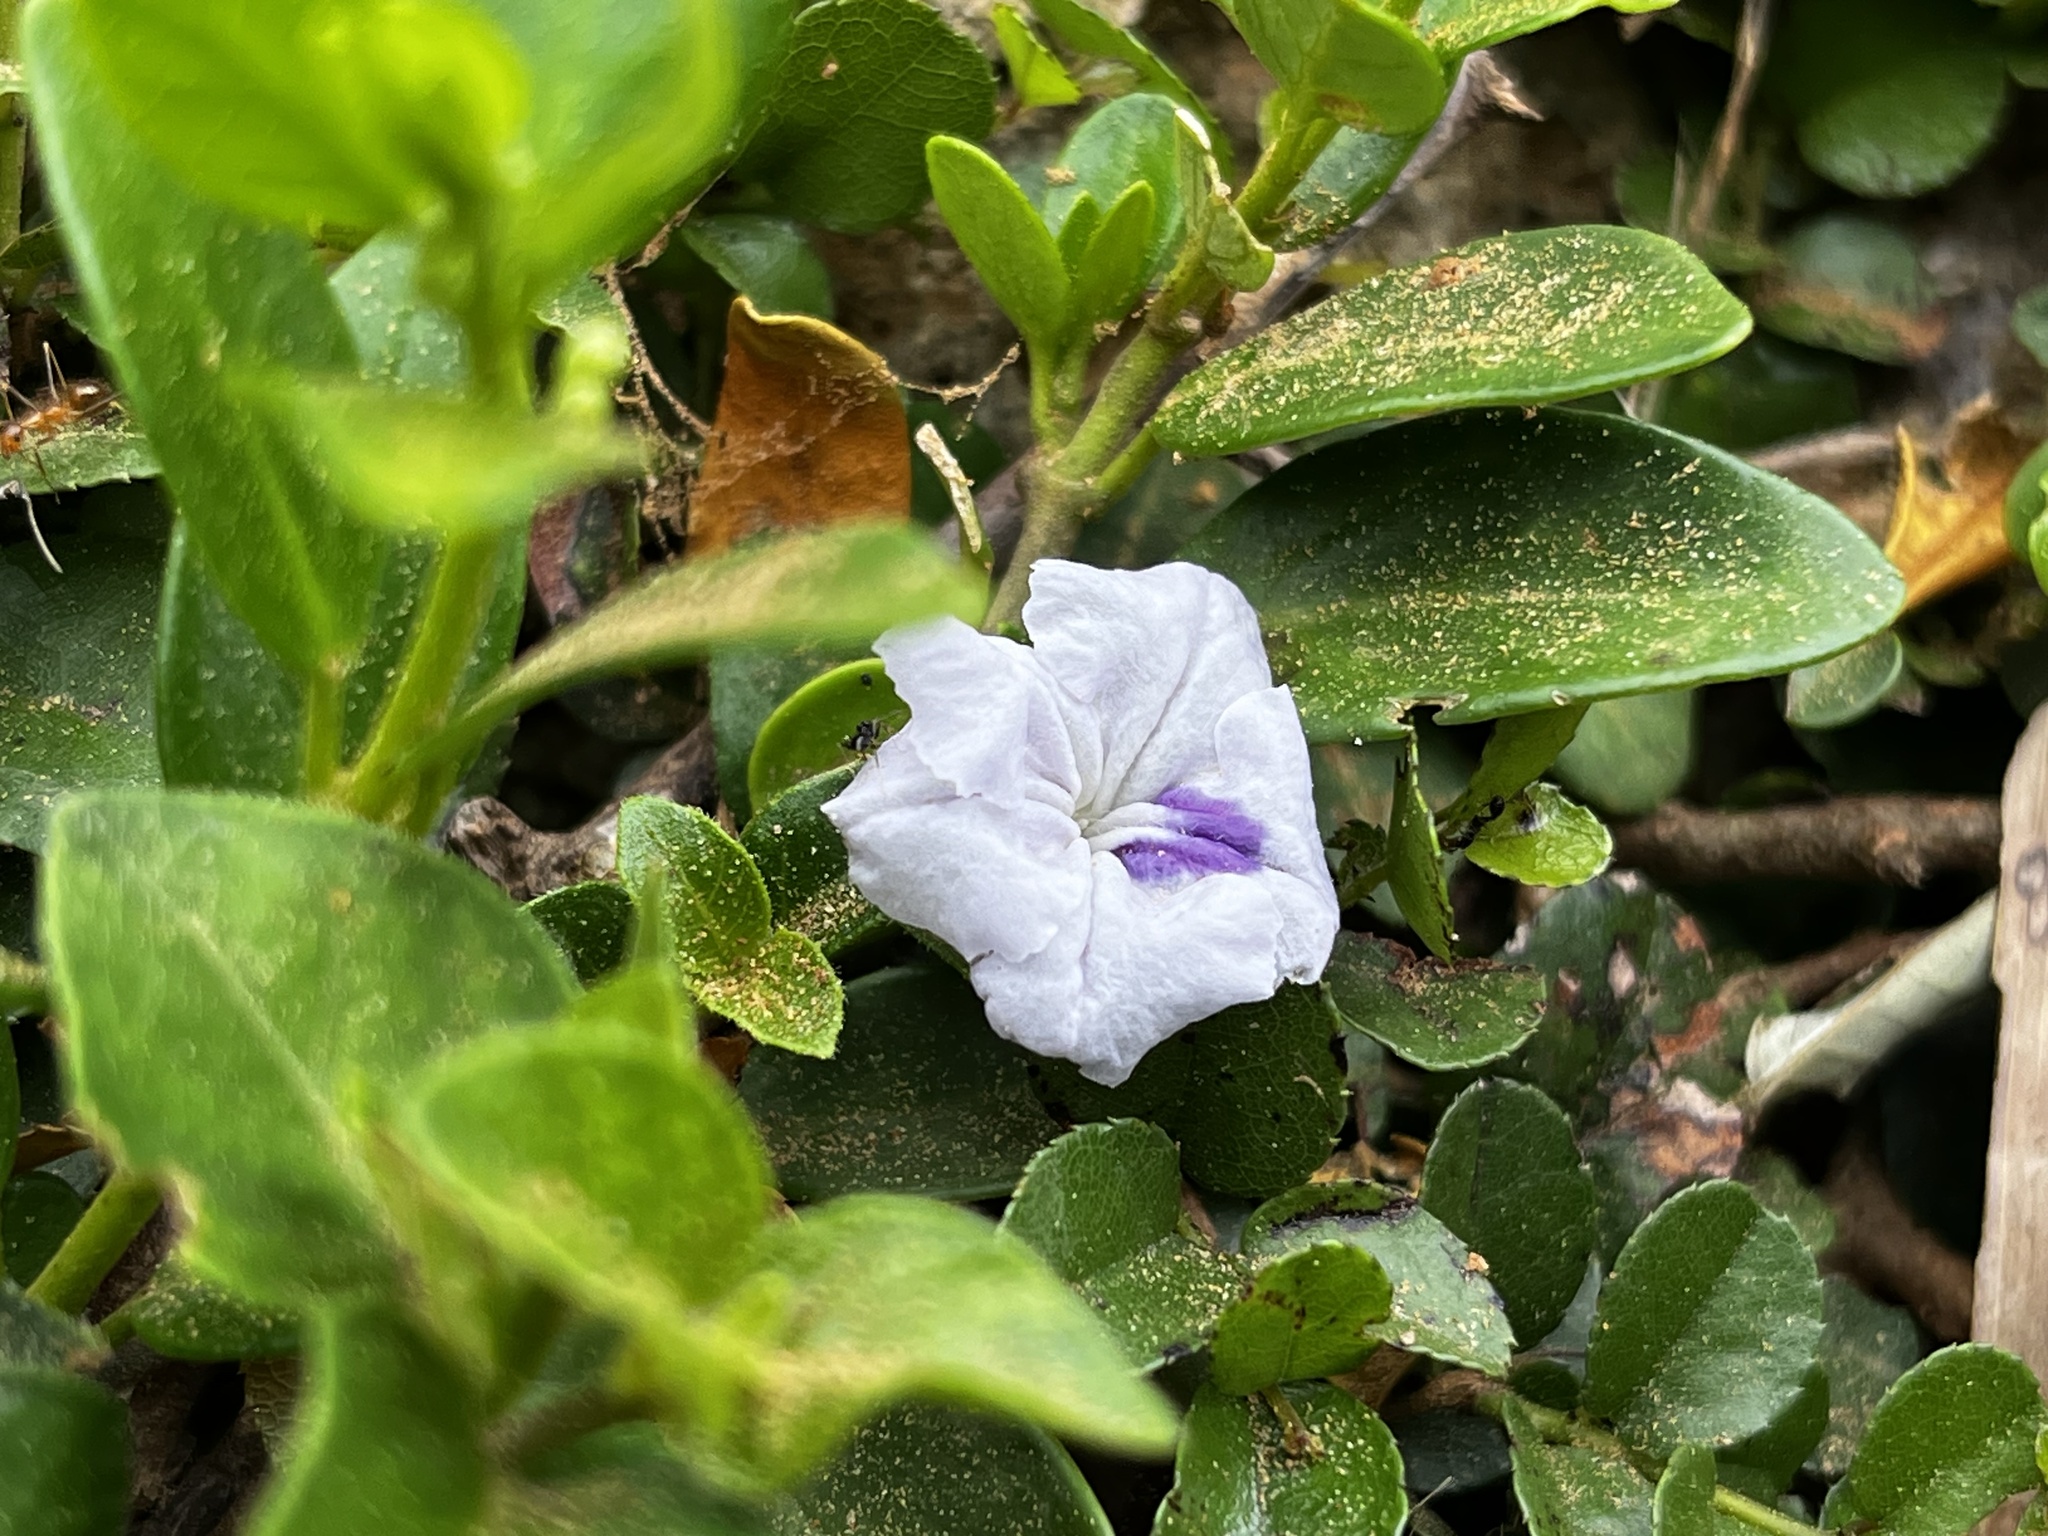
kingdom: Plantae
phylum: Tracheophyta
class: Magnoliopsida
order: Lamiales
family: Acanthaceae
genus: Ruellia
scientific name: Ruellia repens
